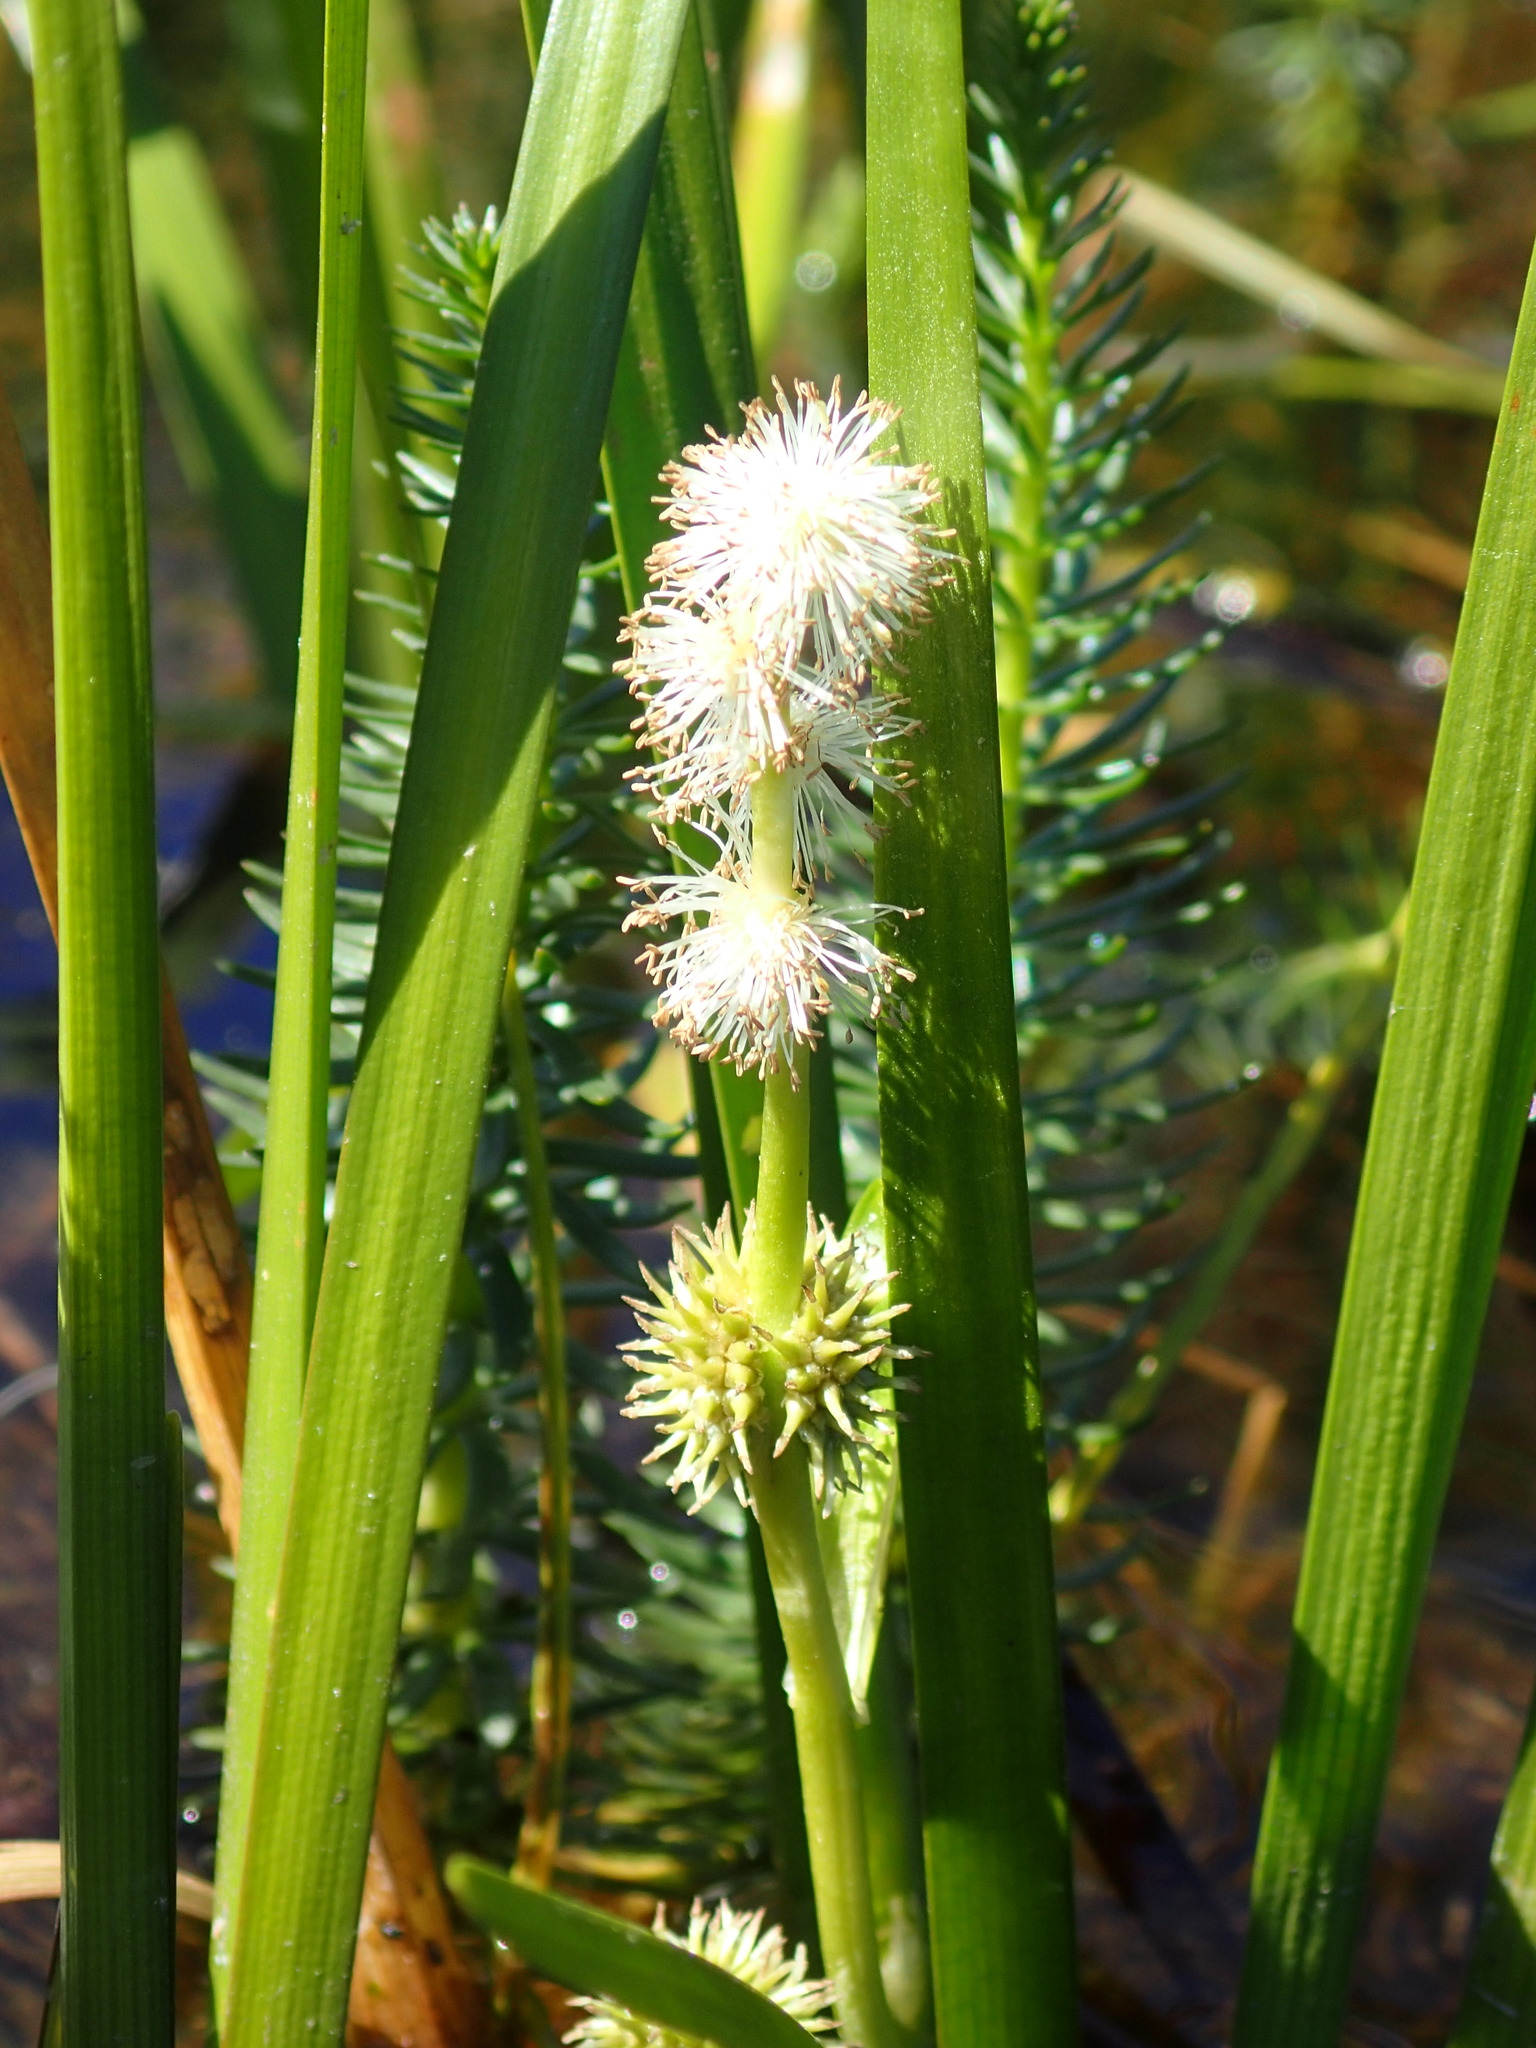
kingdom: Plantae
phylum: Tracheophyta
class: Liliopsida
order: Poales
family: Typhaceae
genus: Sparganium
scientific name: Sparganium emersum
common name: Unbranched bur-reed
